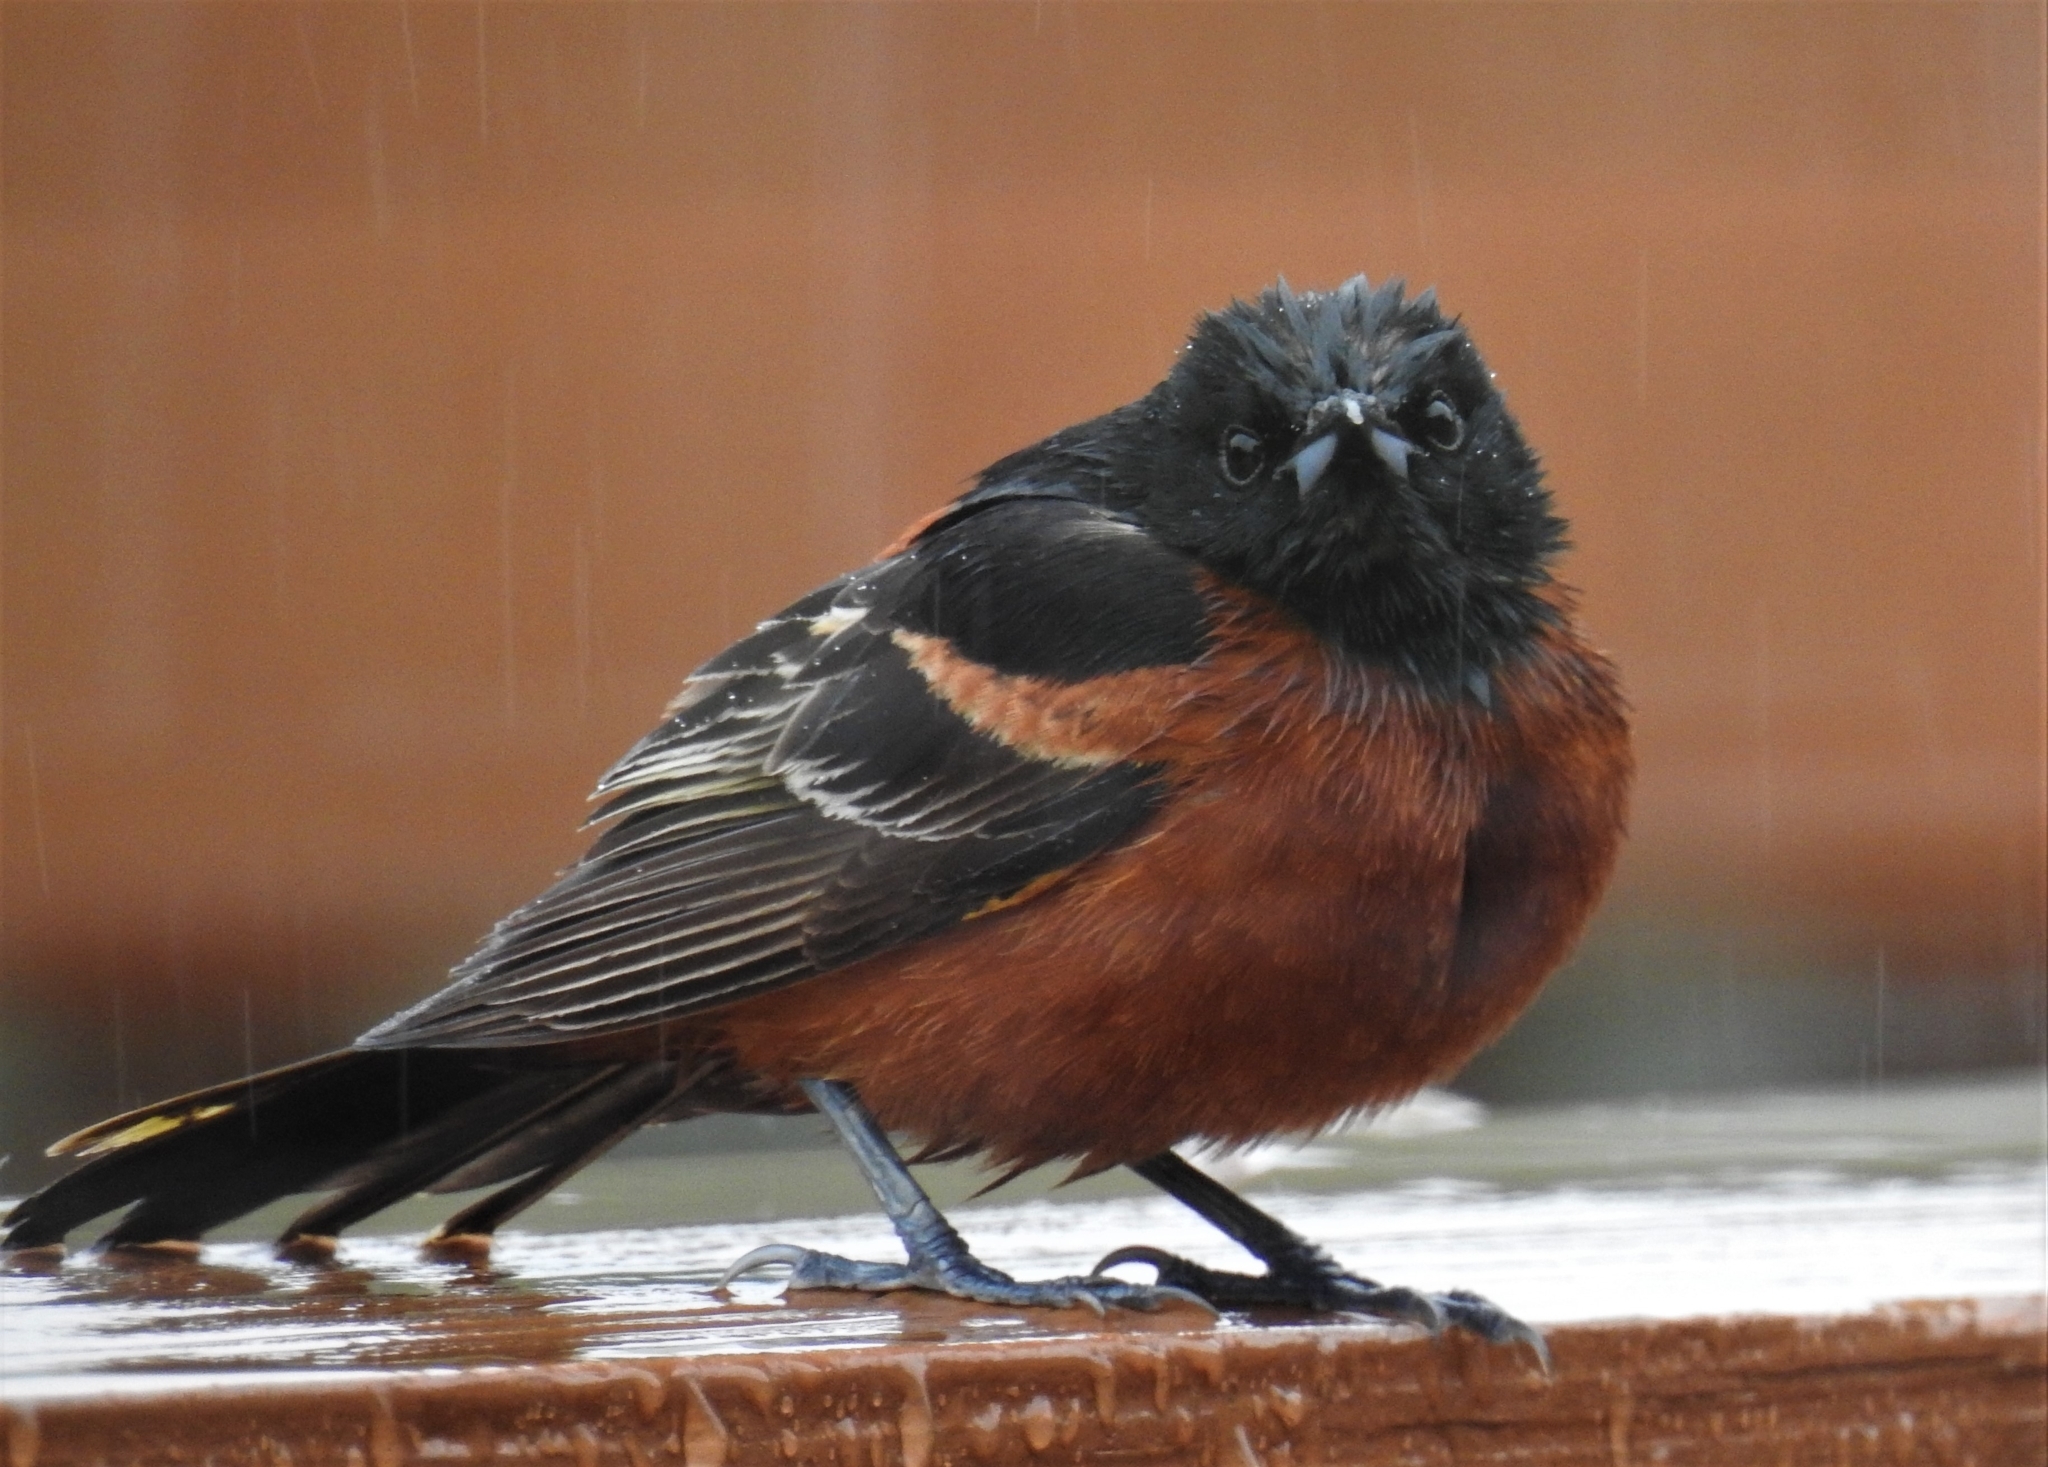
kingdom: Animalia
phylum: Chordata
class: Aves
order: Passeriformes
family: Icteridae
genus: Icterus
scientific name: Icterus spurius
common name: Orchard oriole
